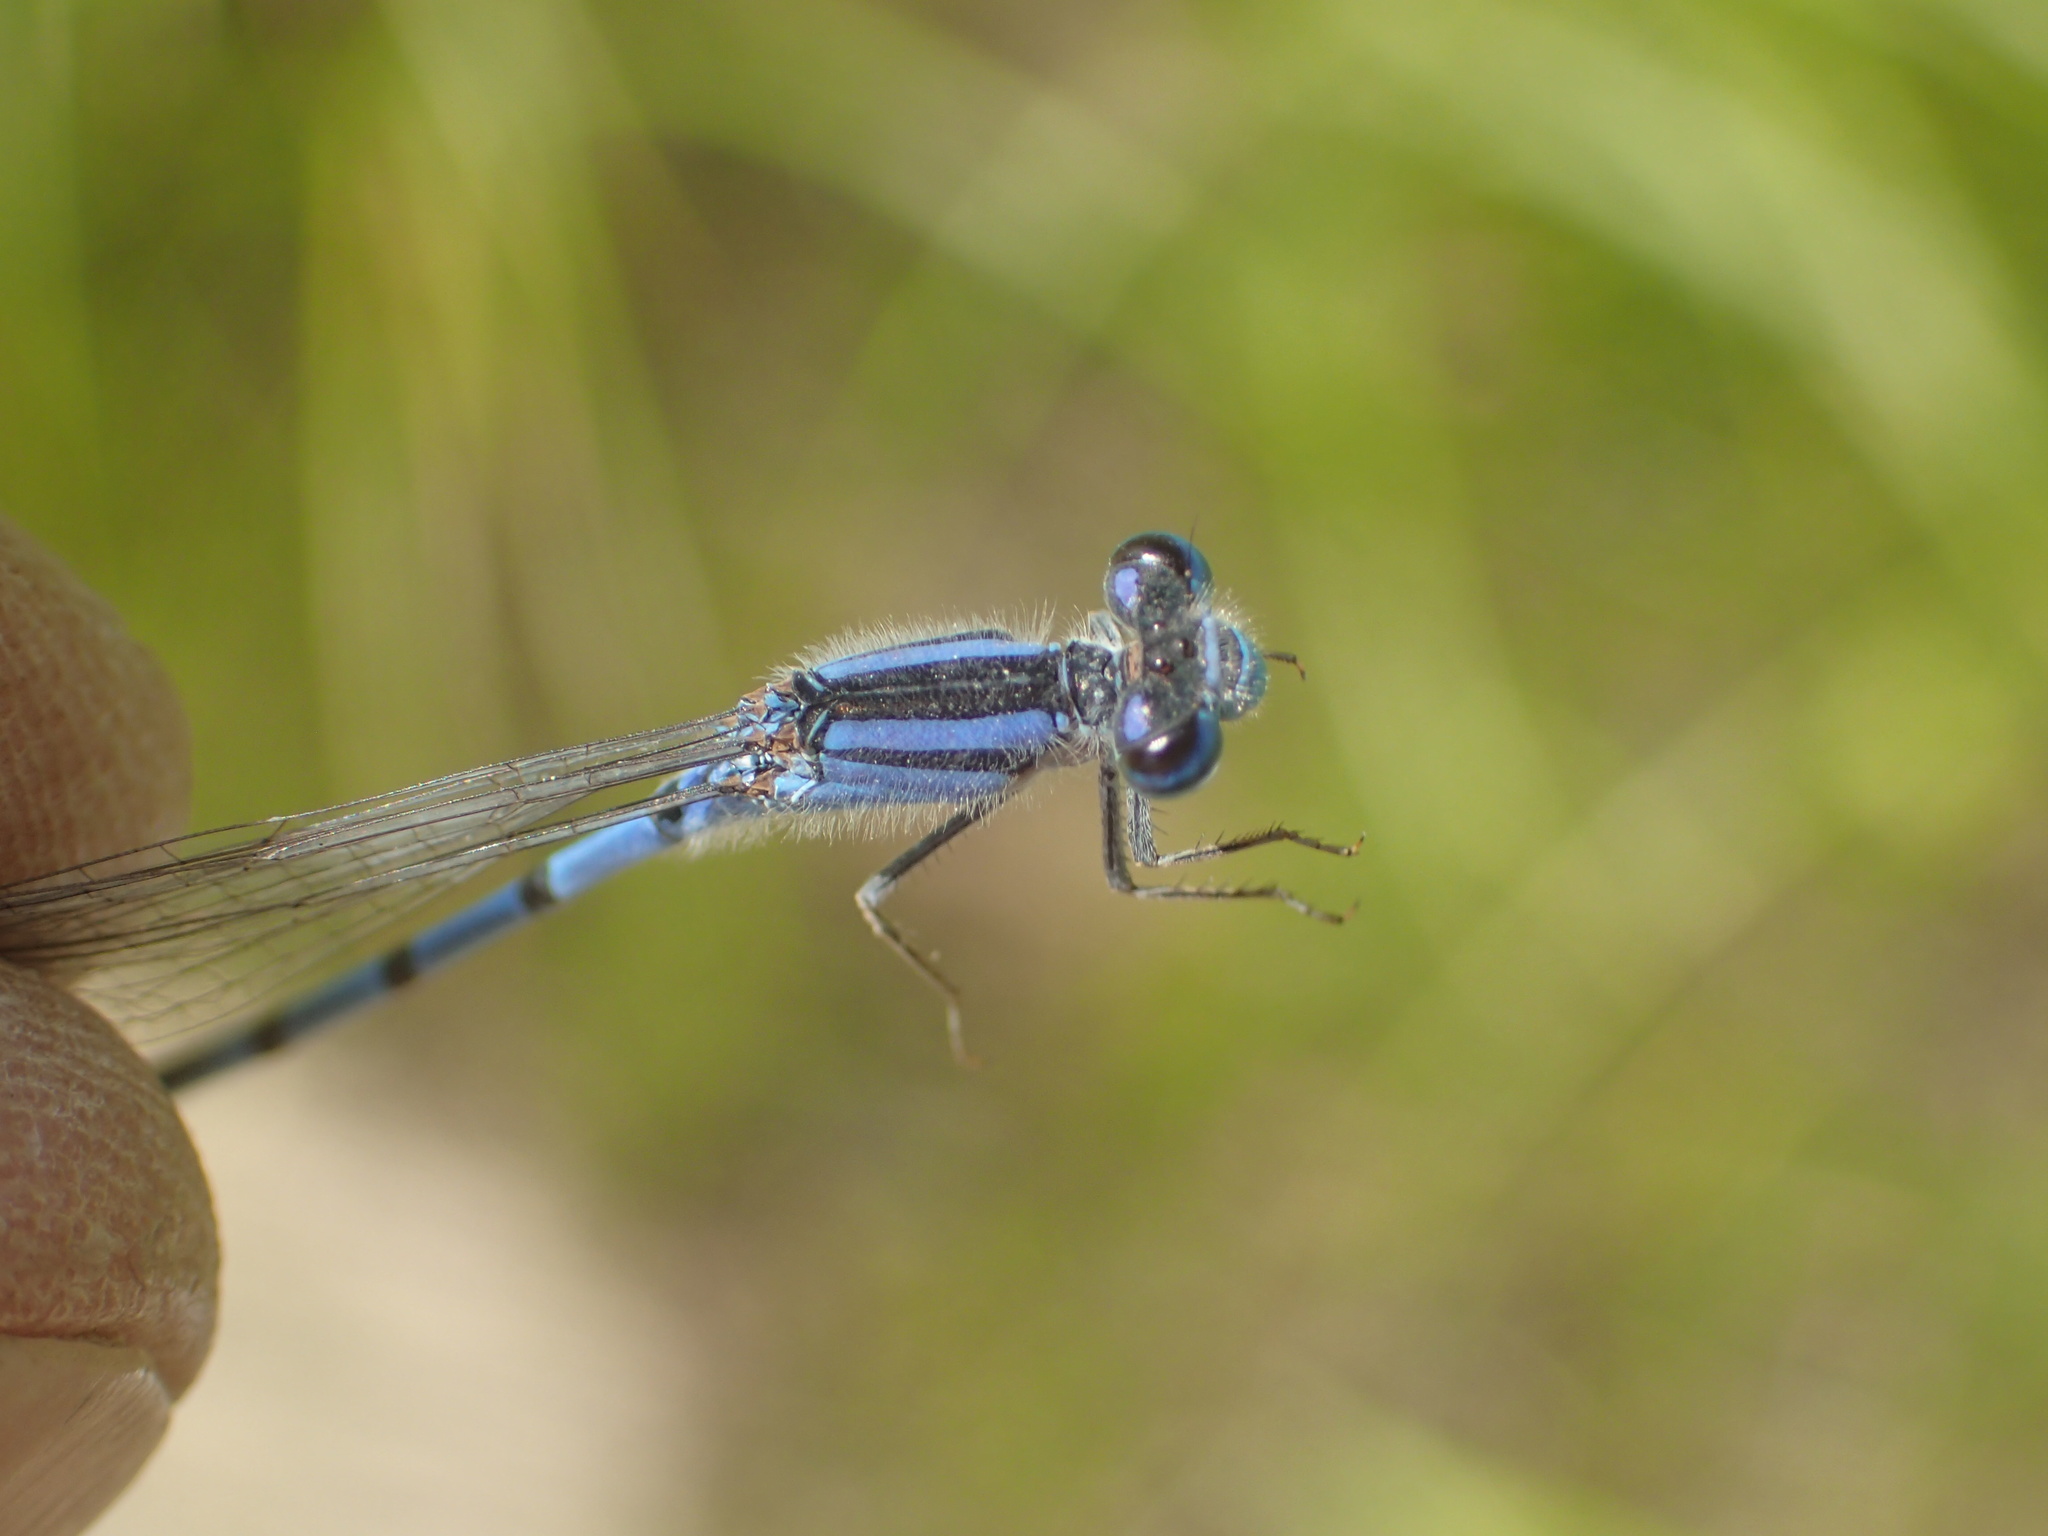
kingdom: Animalia
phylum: Arthropoda
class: Insecta
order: Odonata
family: Coenagrionidae
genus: Enallagma
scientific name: Enallagma civile
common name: Damselfly
